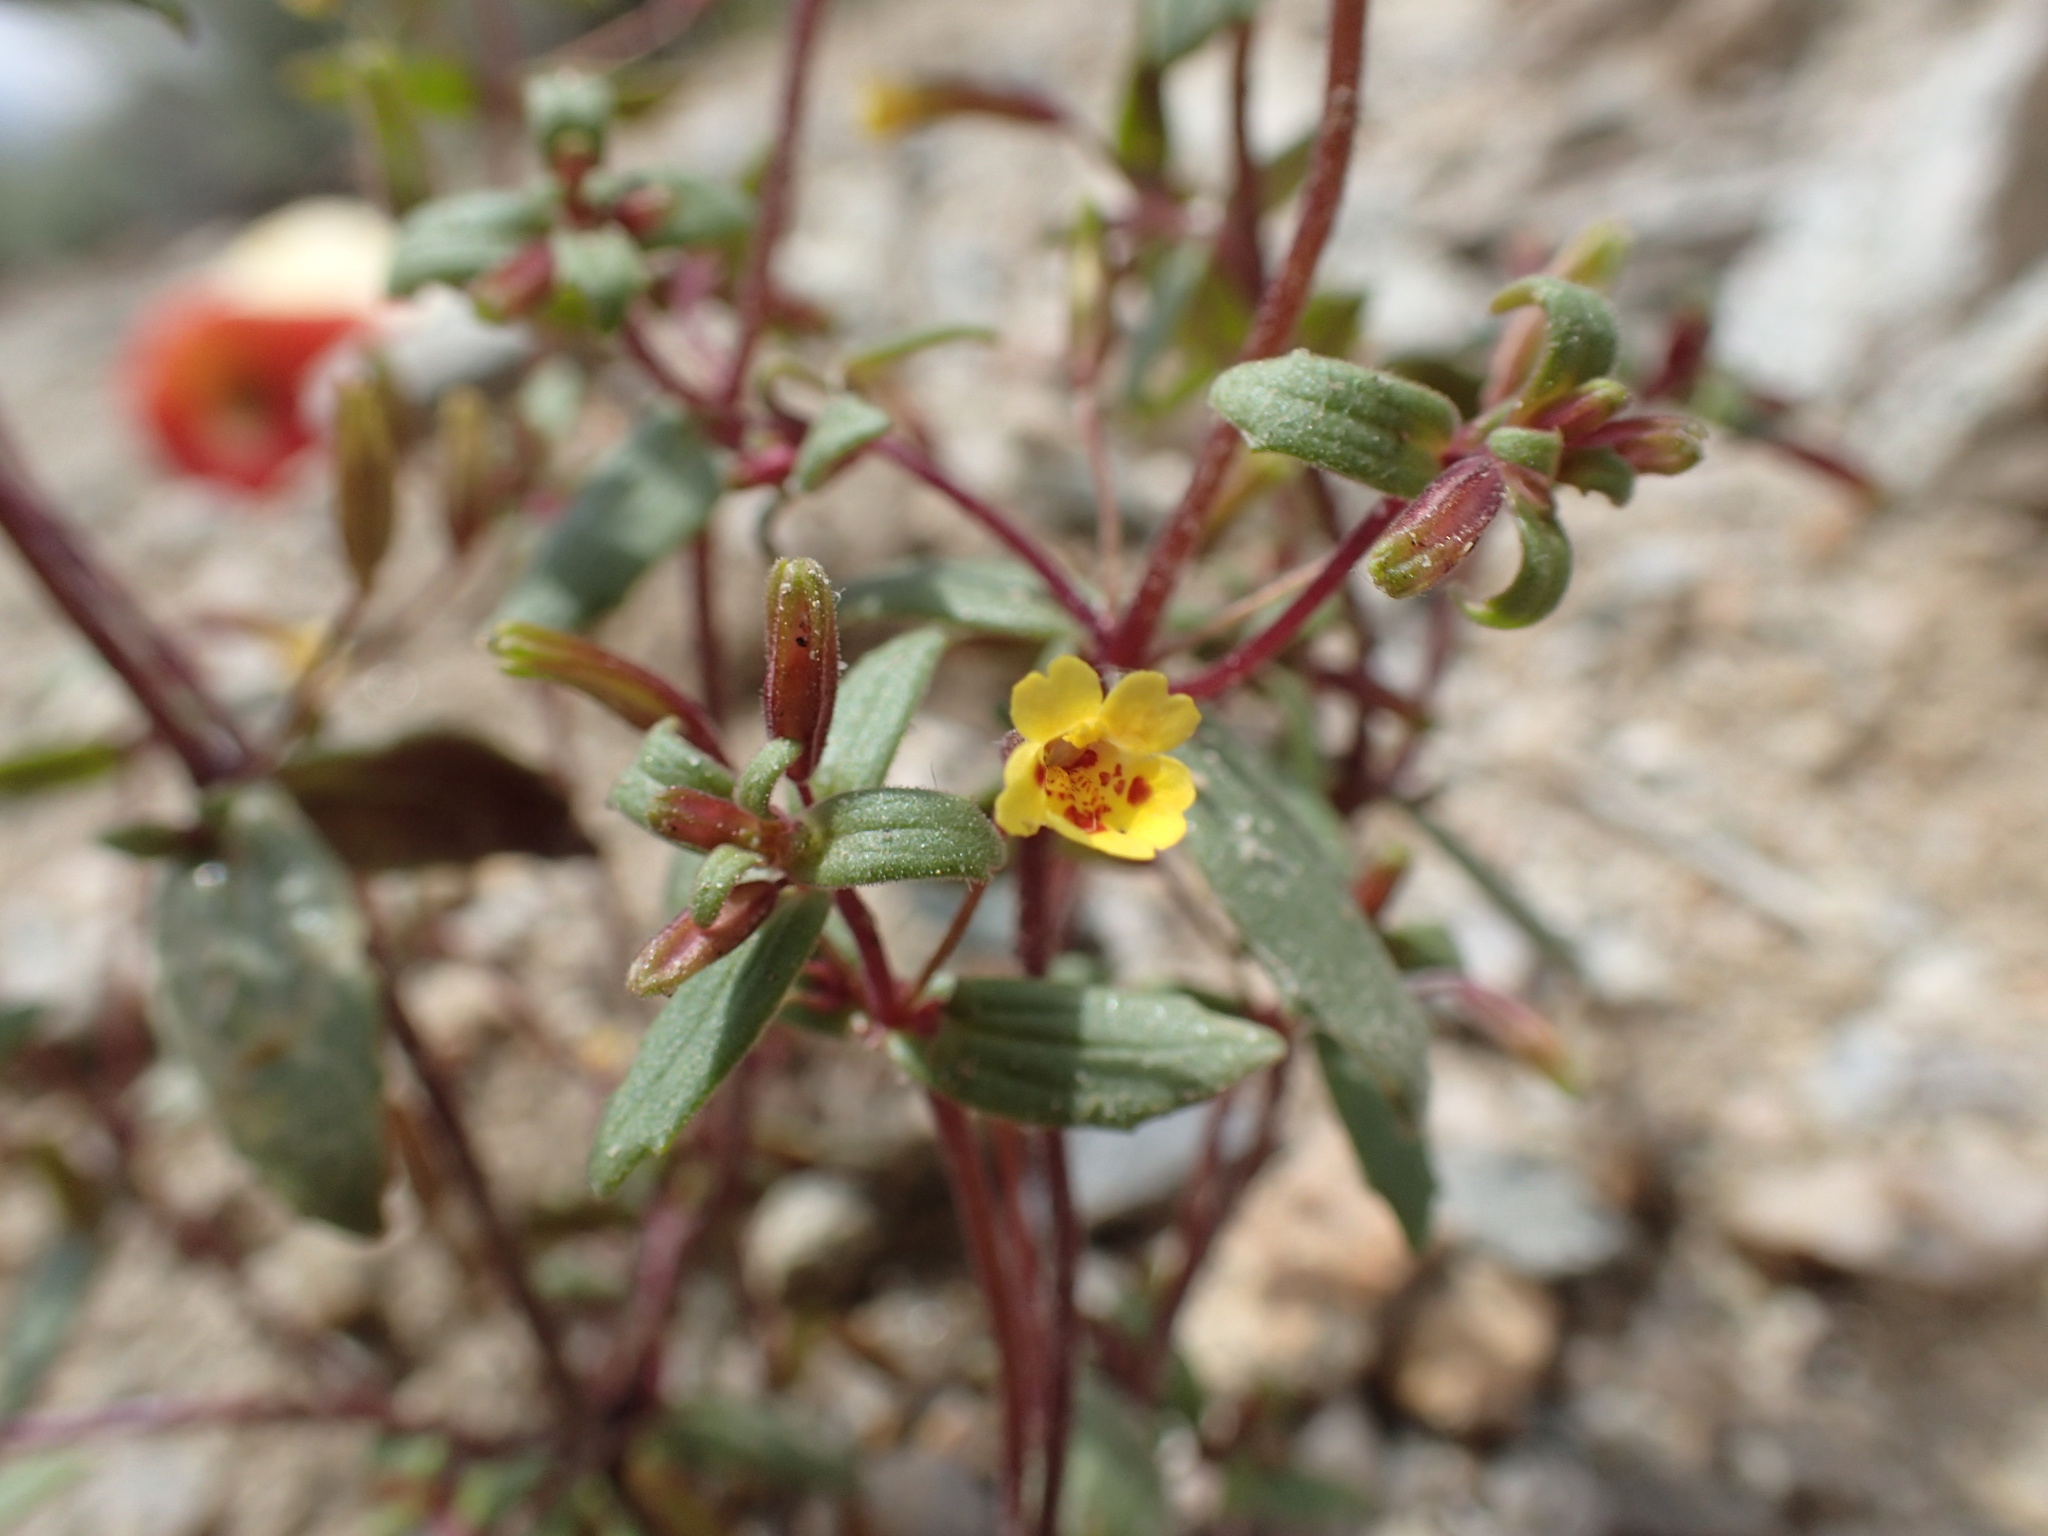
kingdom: Plantae
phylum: Tracheophyta
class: Magnoliopsida
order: Lamiales
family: Phrymaceae
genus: Erythranthe
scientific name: Erythranthe rubella
